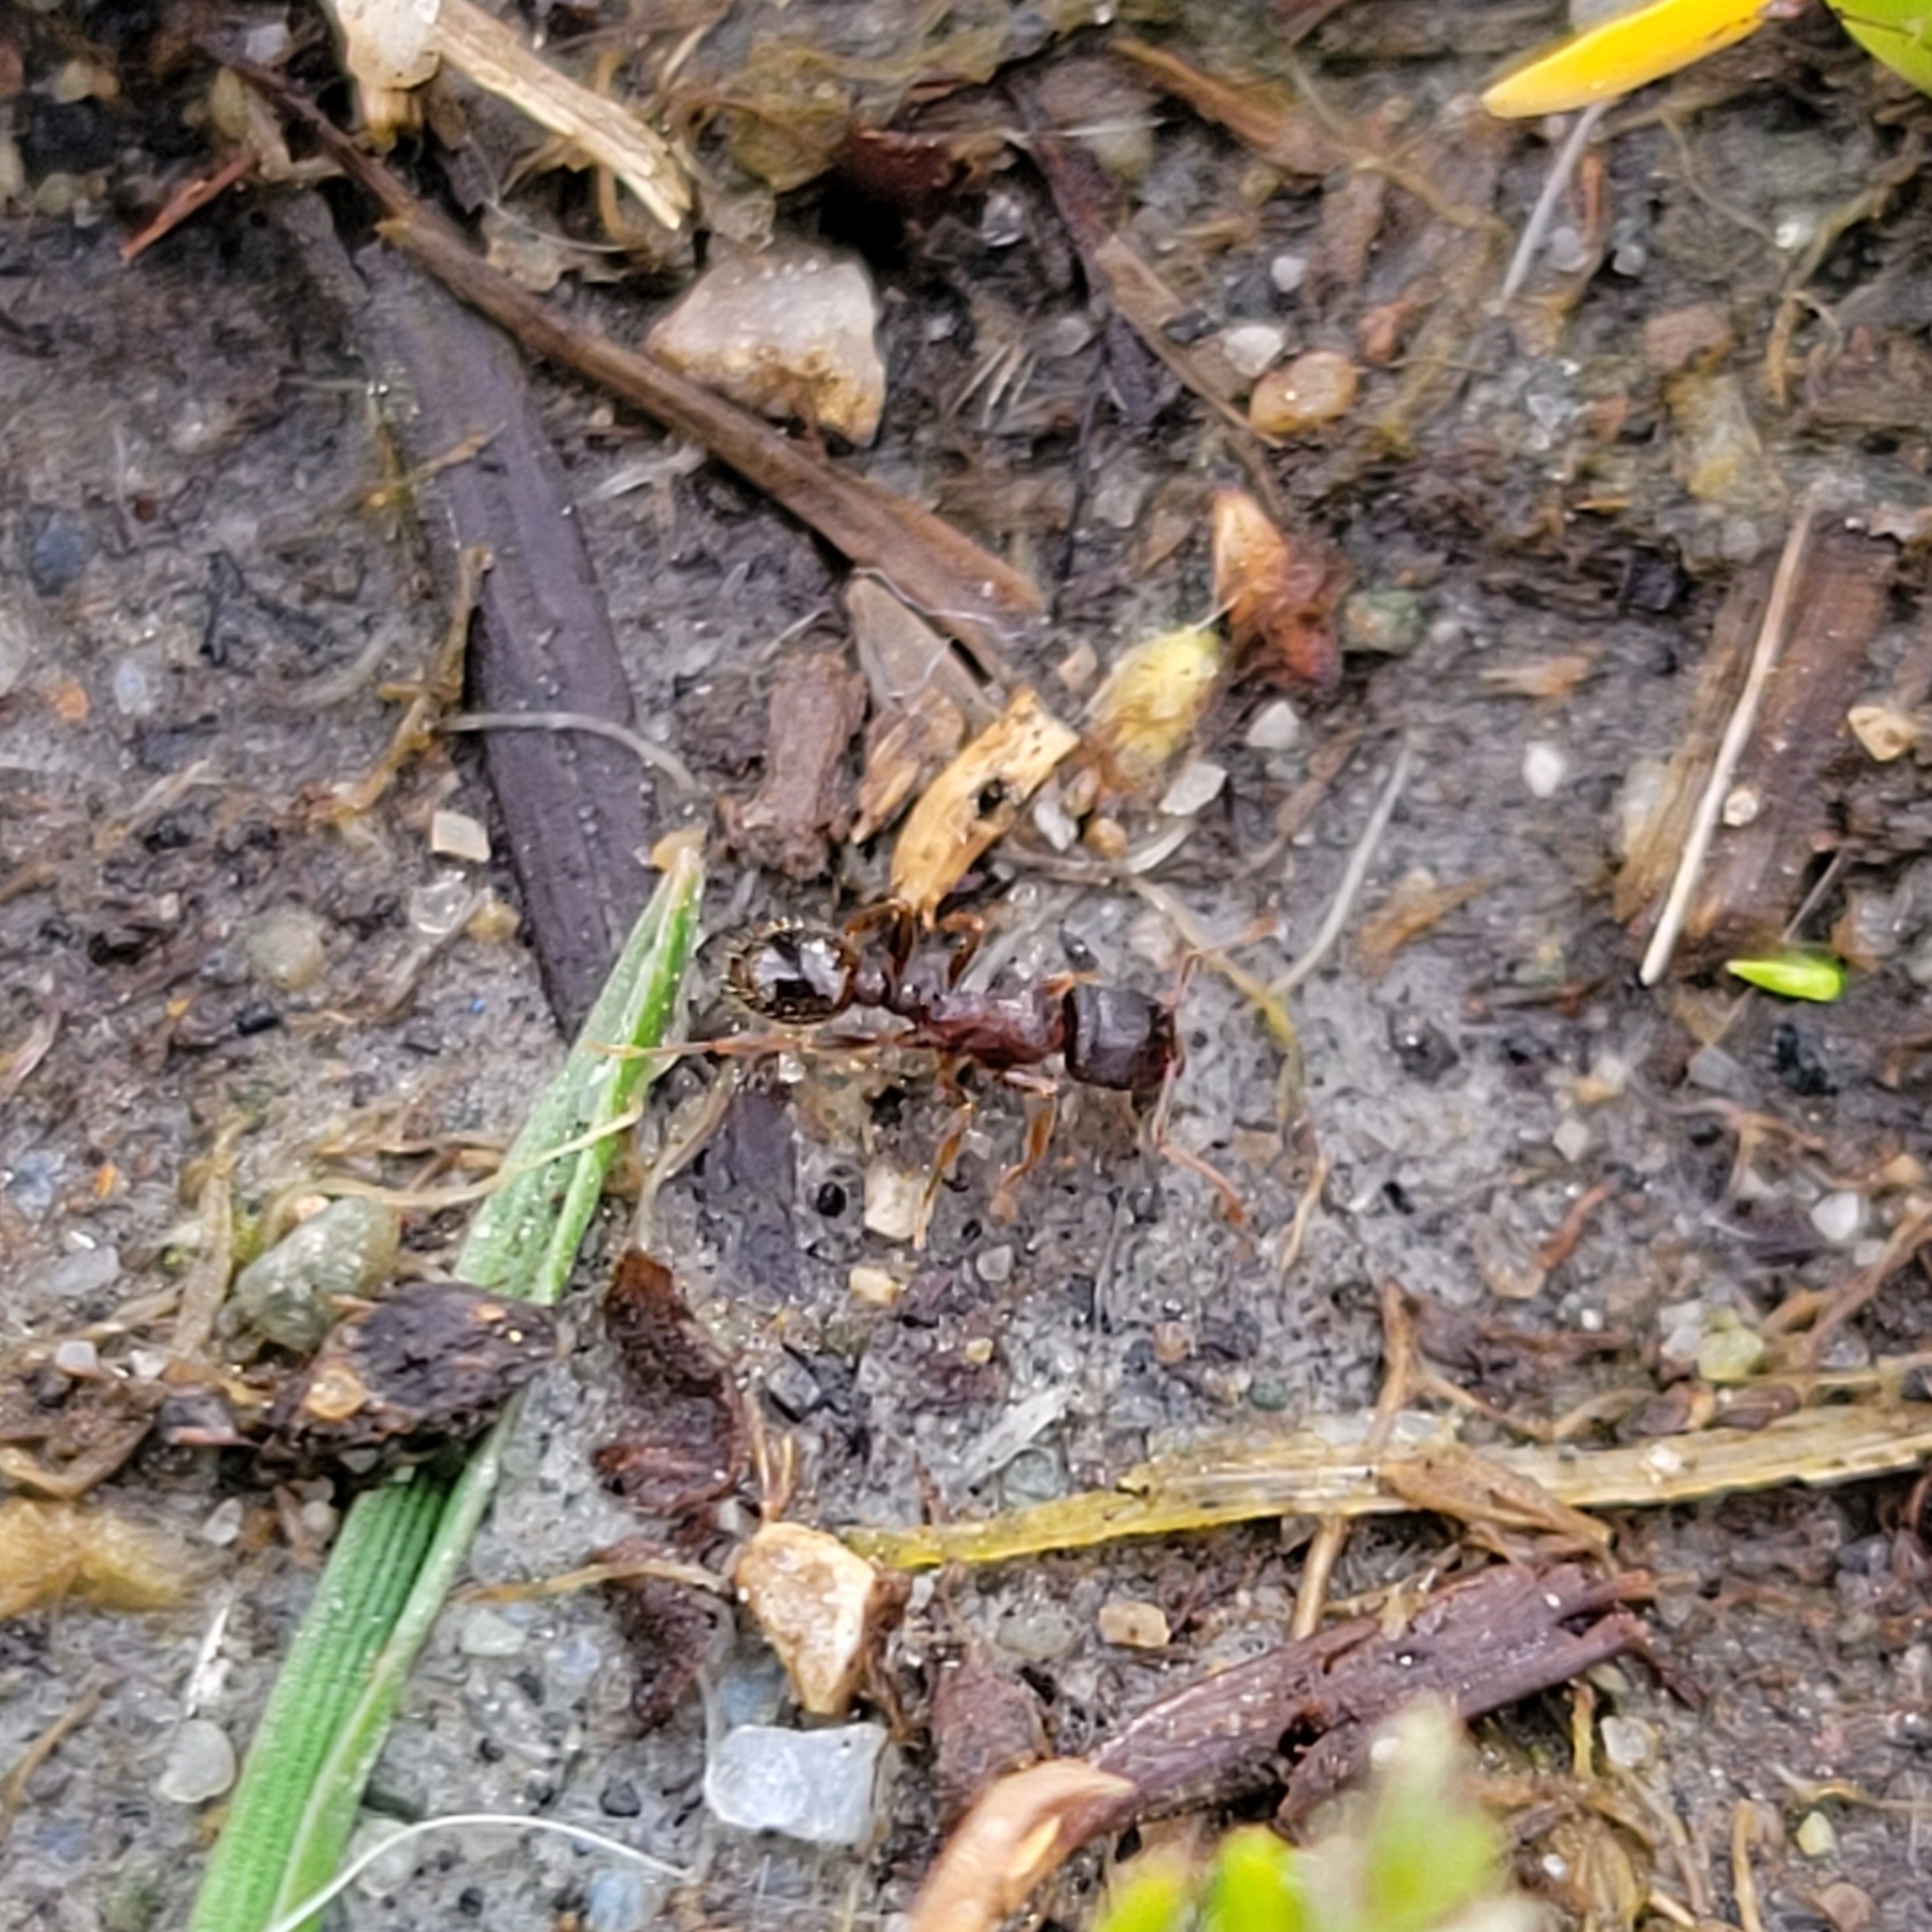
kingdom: Animalia
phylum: Arthropoda
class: Insecta
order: Hymenoptera
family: Formicidae
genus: Tetramorium
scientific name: Tetramorium immigrans
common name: Pavement ant
